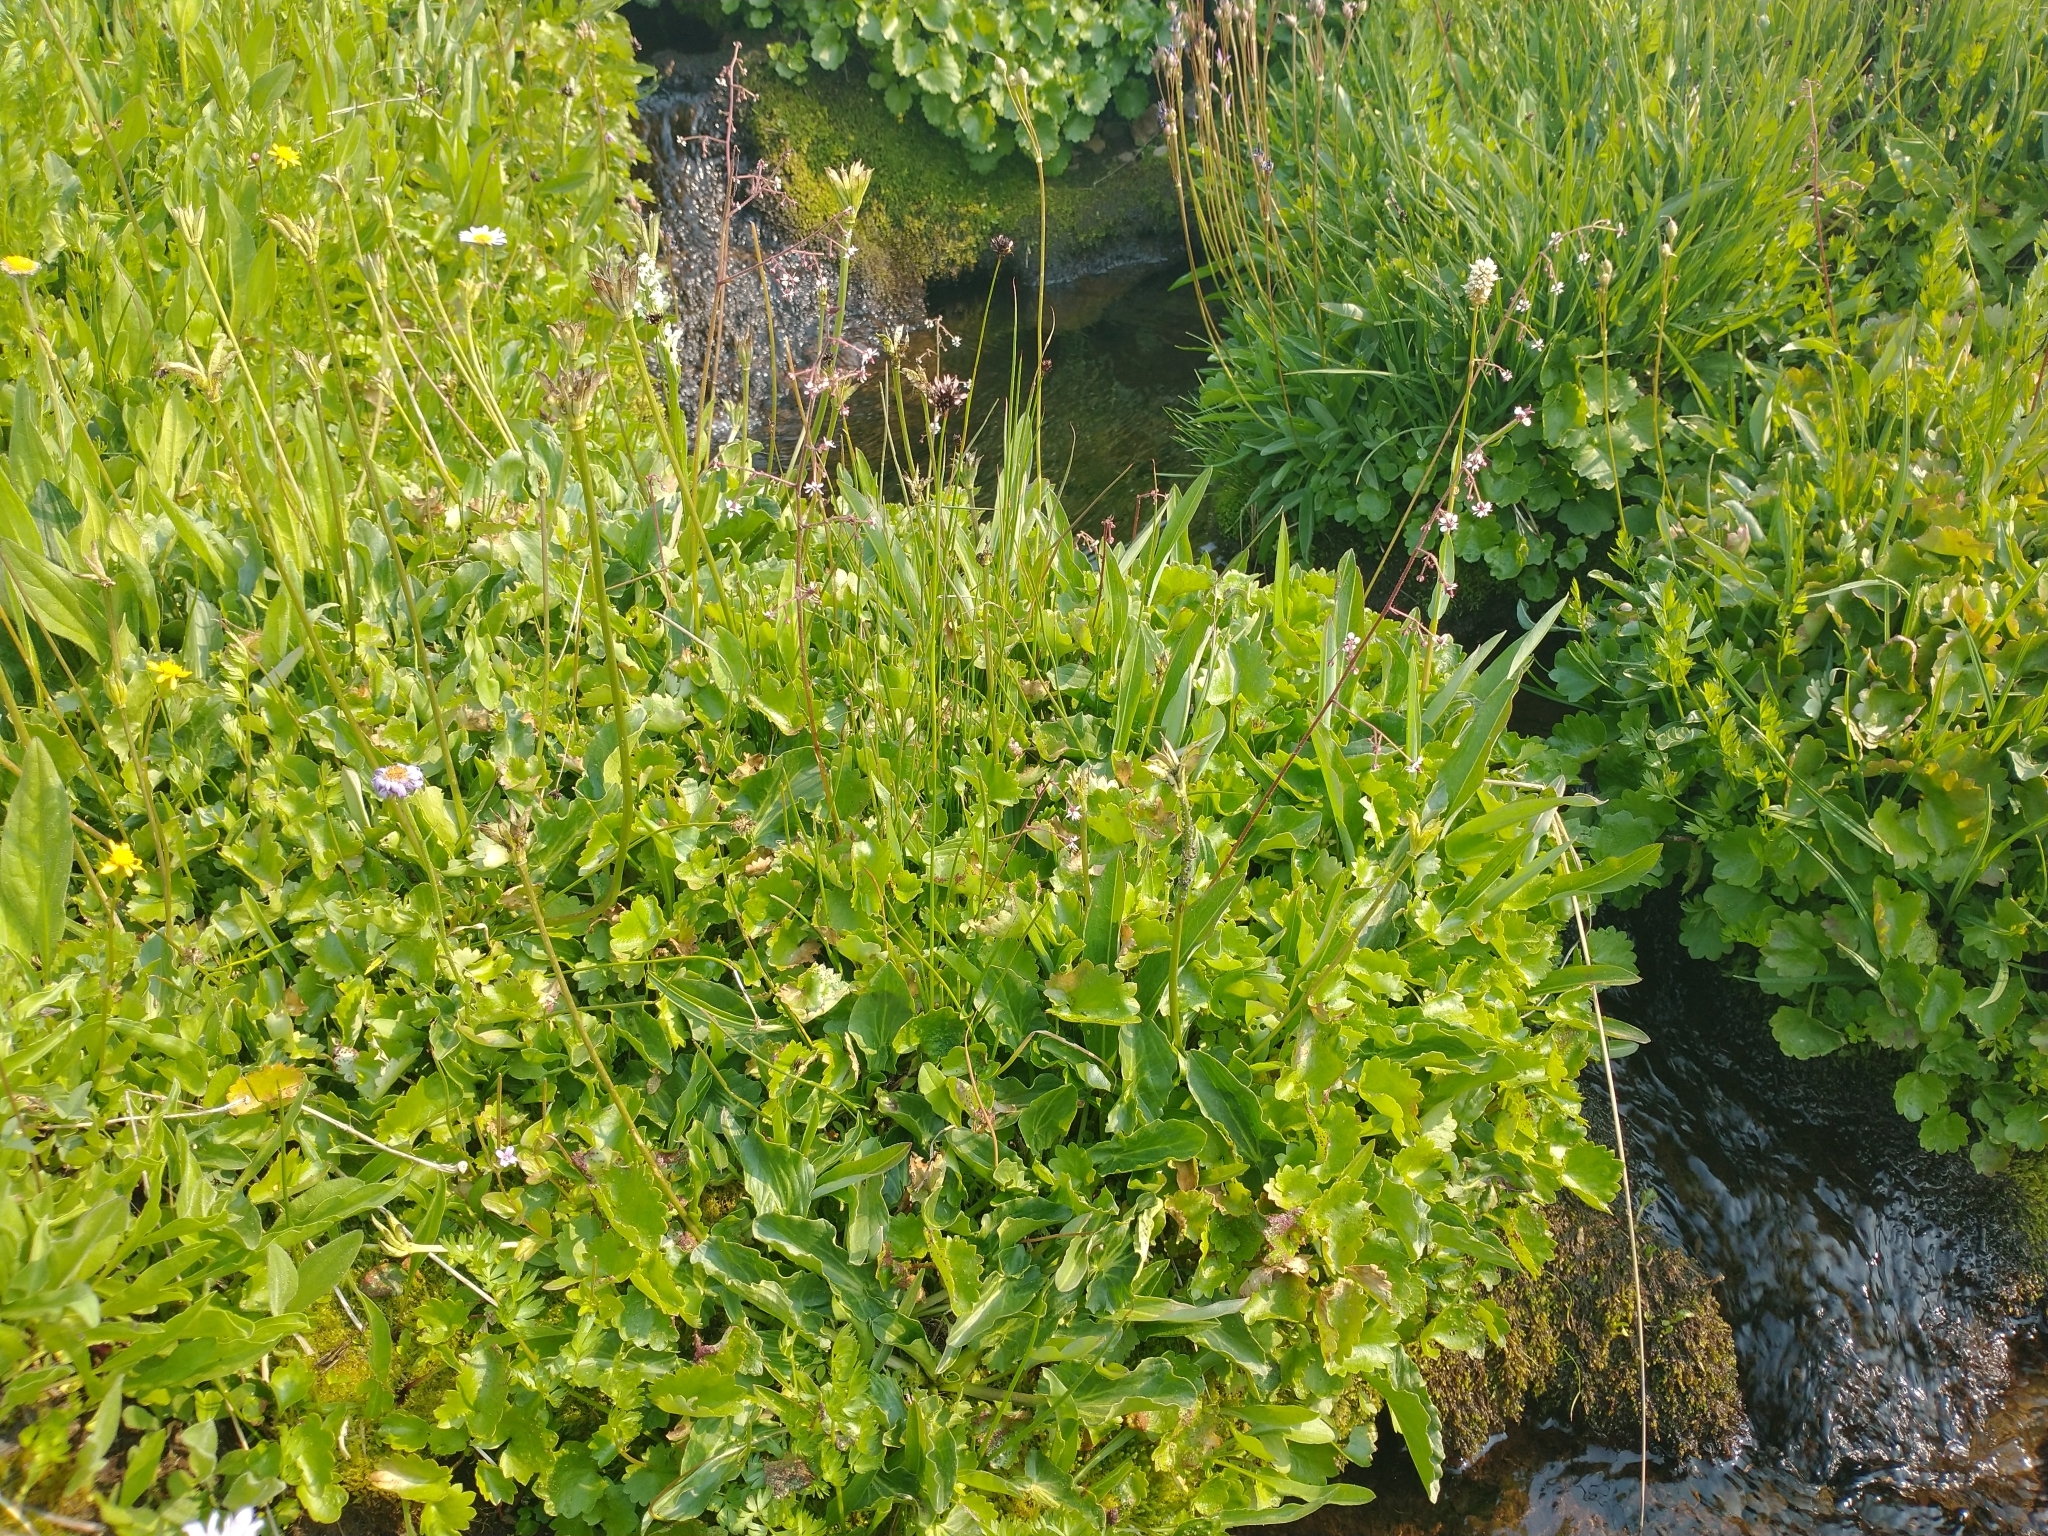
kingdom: Plantae
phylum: Tracheophyta
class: Magnoliopsida
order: Saxifragales
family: Saxifragaceae
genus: Micranthes
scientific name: Micranthes odontoloma
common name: Brook saxifrage
